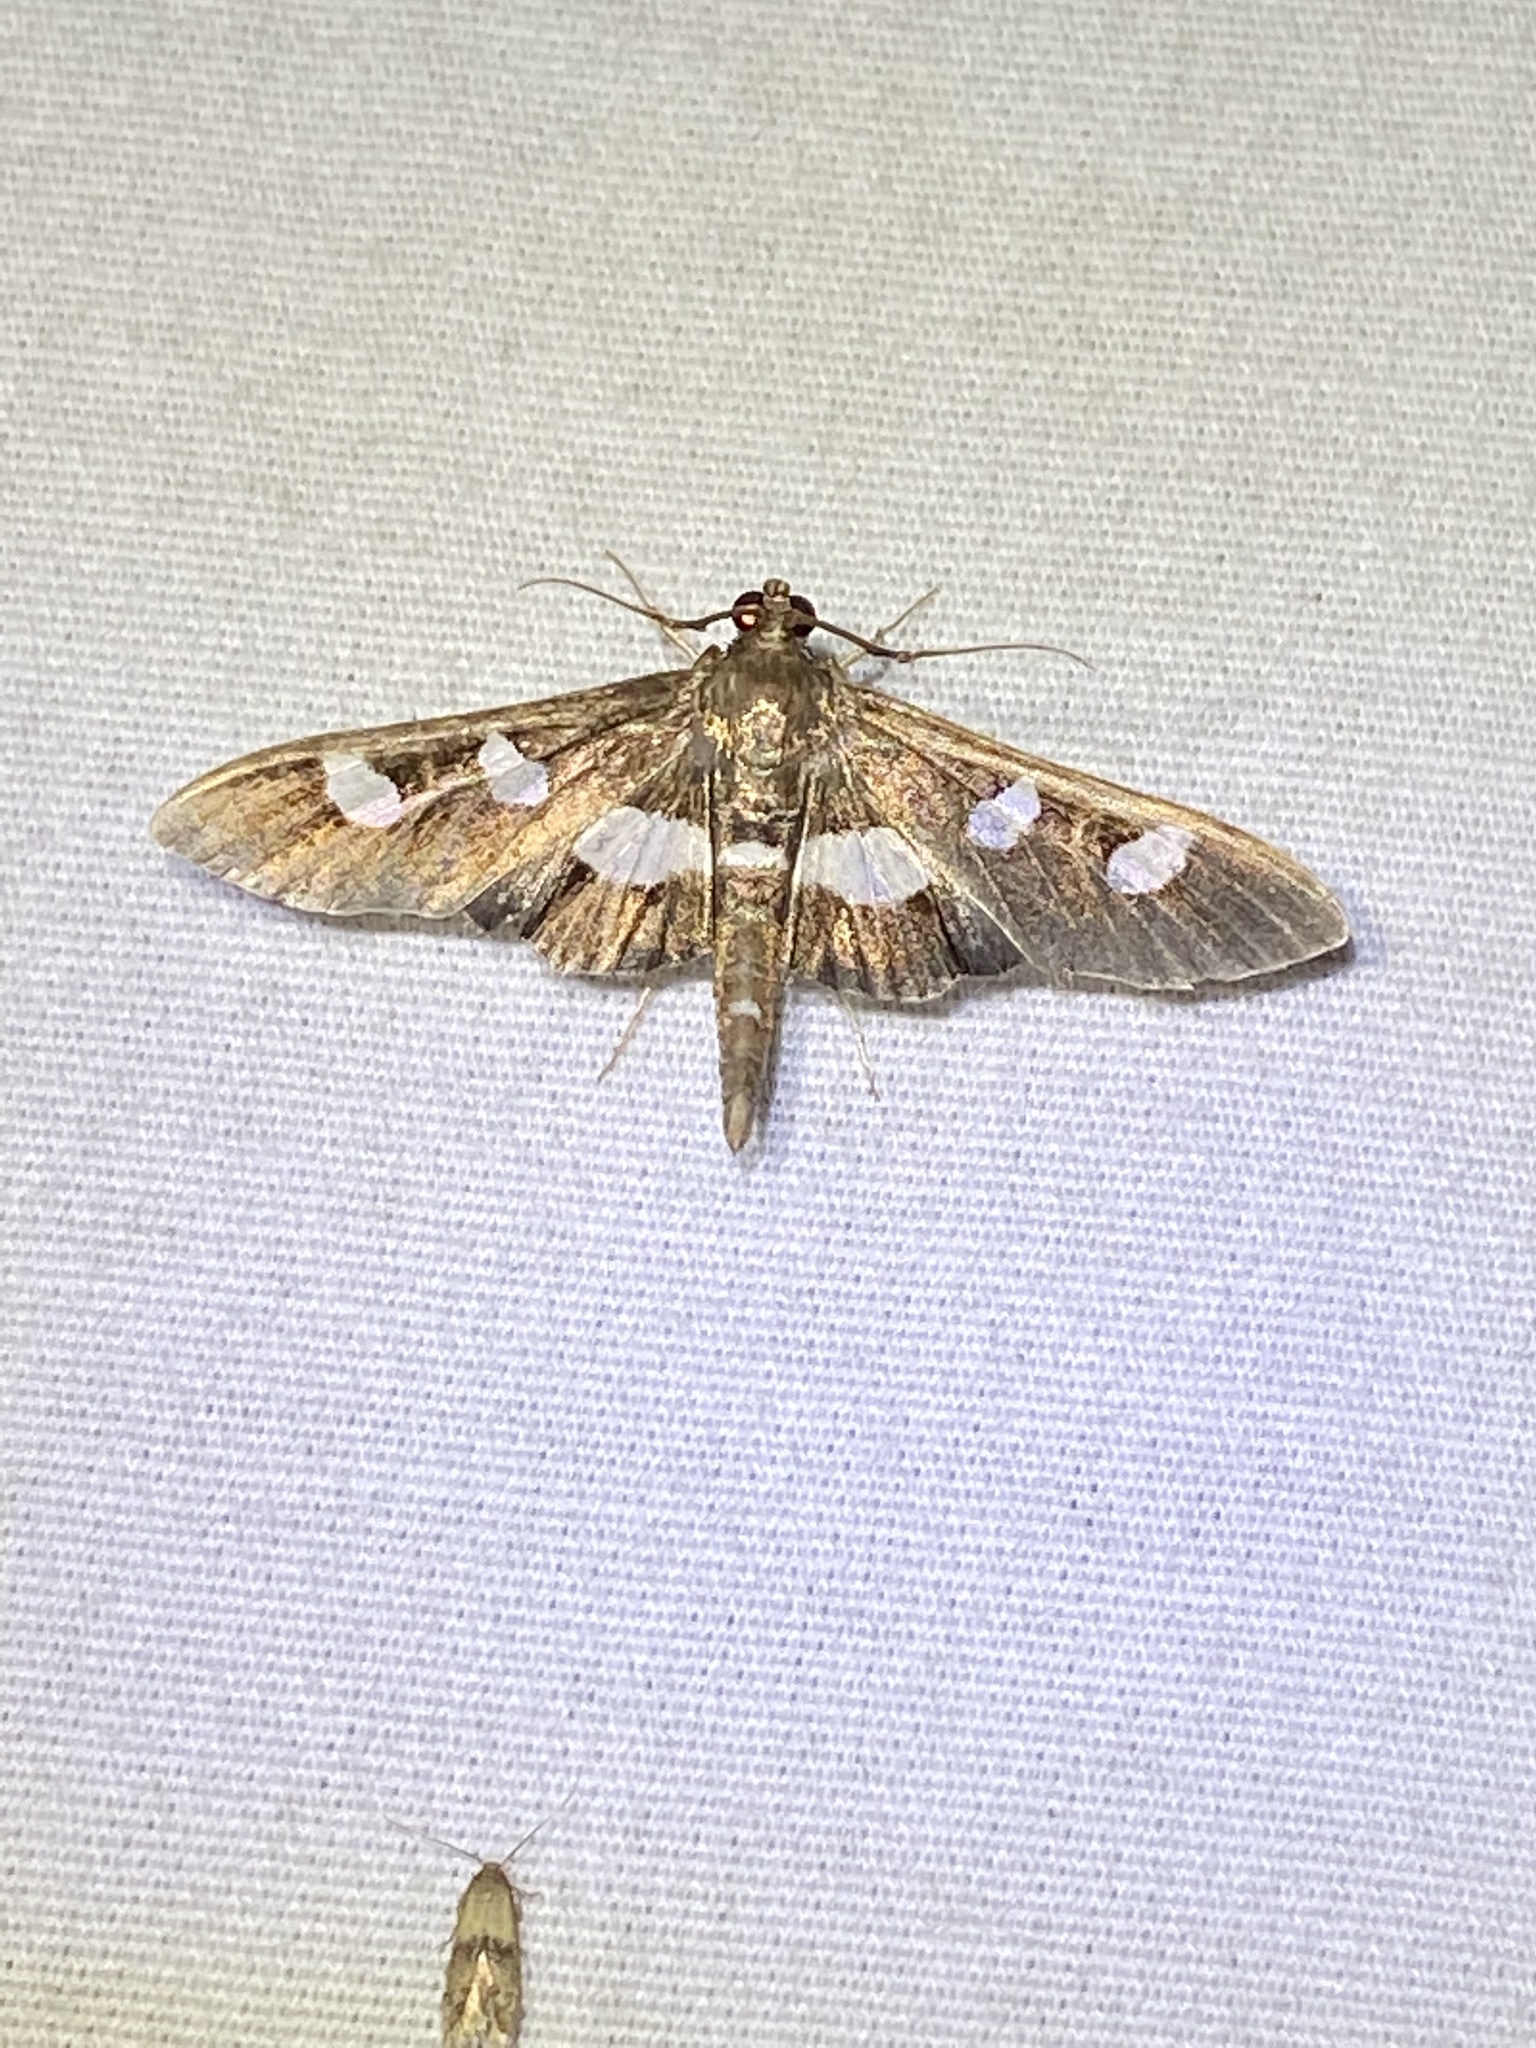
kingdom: Animalia
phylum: Arthropoda
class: Insecta
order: Lepidoptera
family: Crambidae
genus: Desmia
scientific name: Desmia
